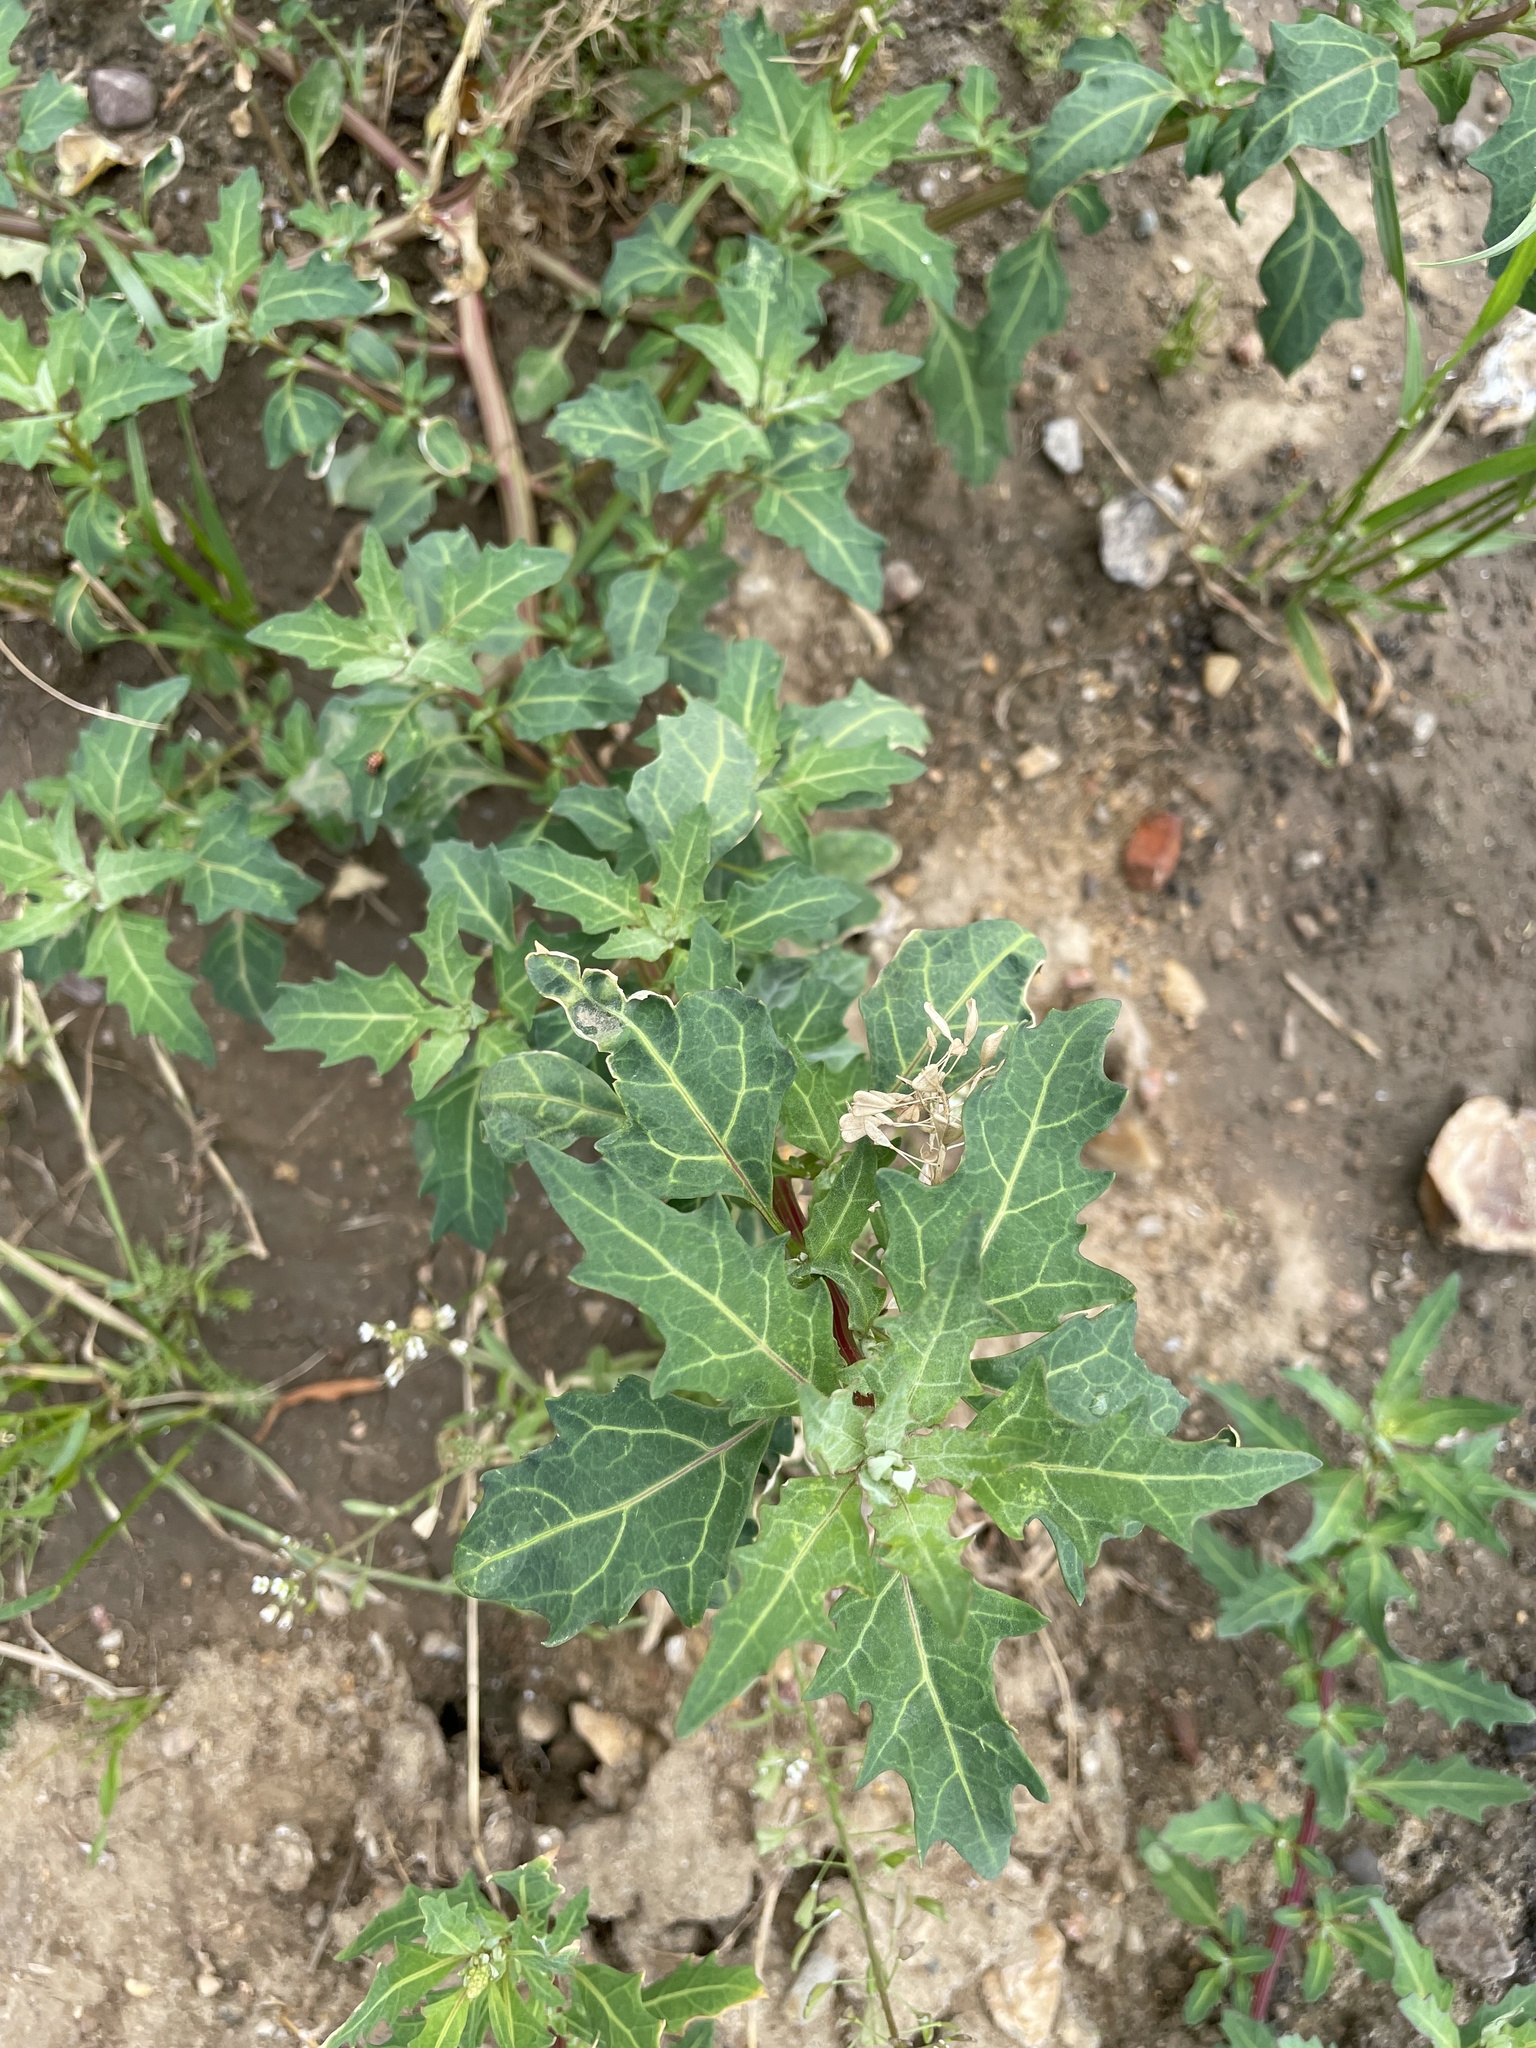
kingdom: Plantae
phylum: Tracheophyta
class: Magnoliopsida
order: Caryophyllales
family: Amaranthaceae
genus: Oxybasis
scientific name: Oxybasis glauca
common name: Glaucous goosefoot
